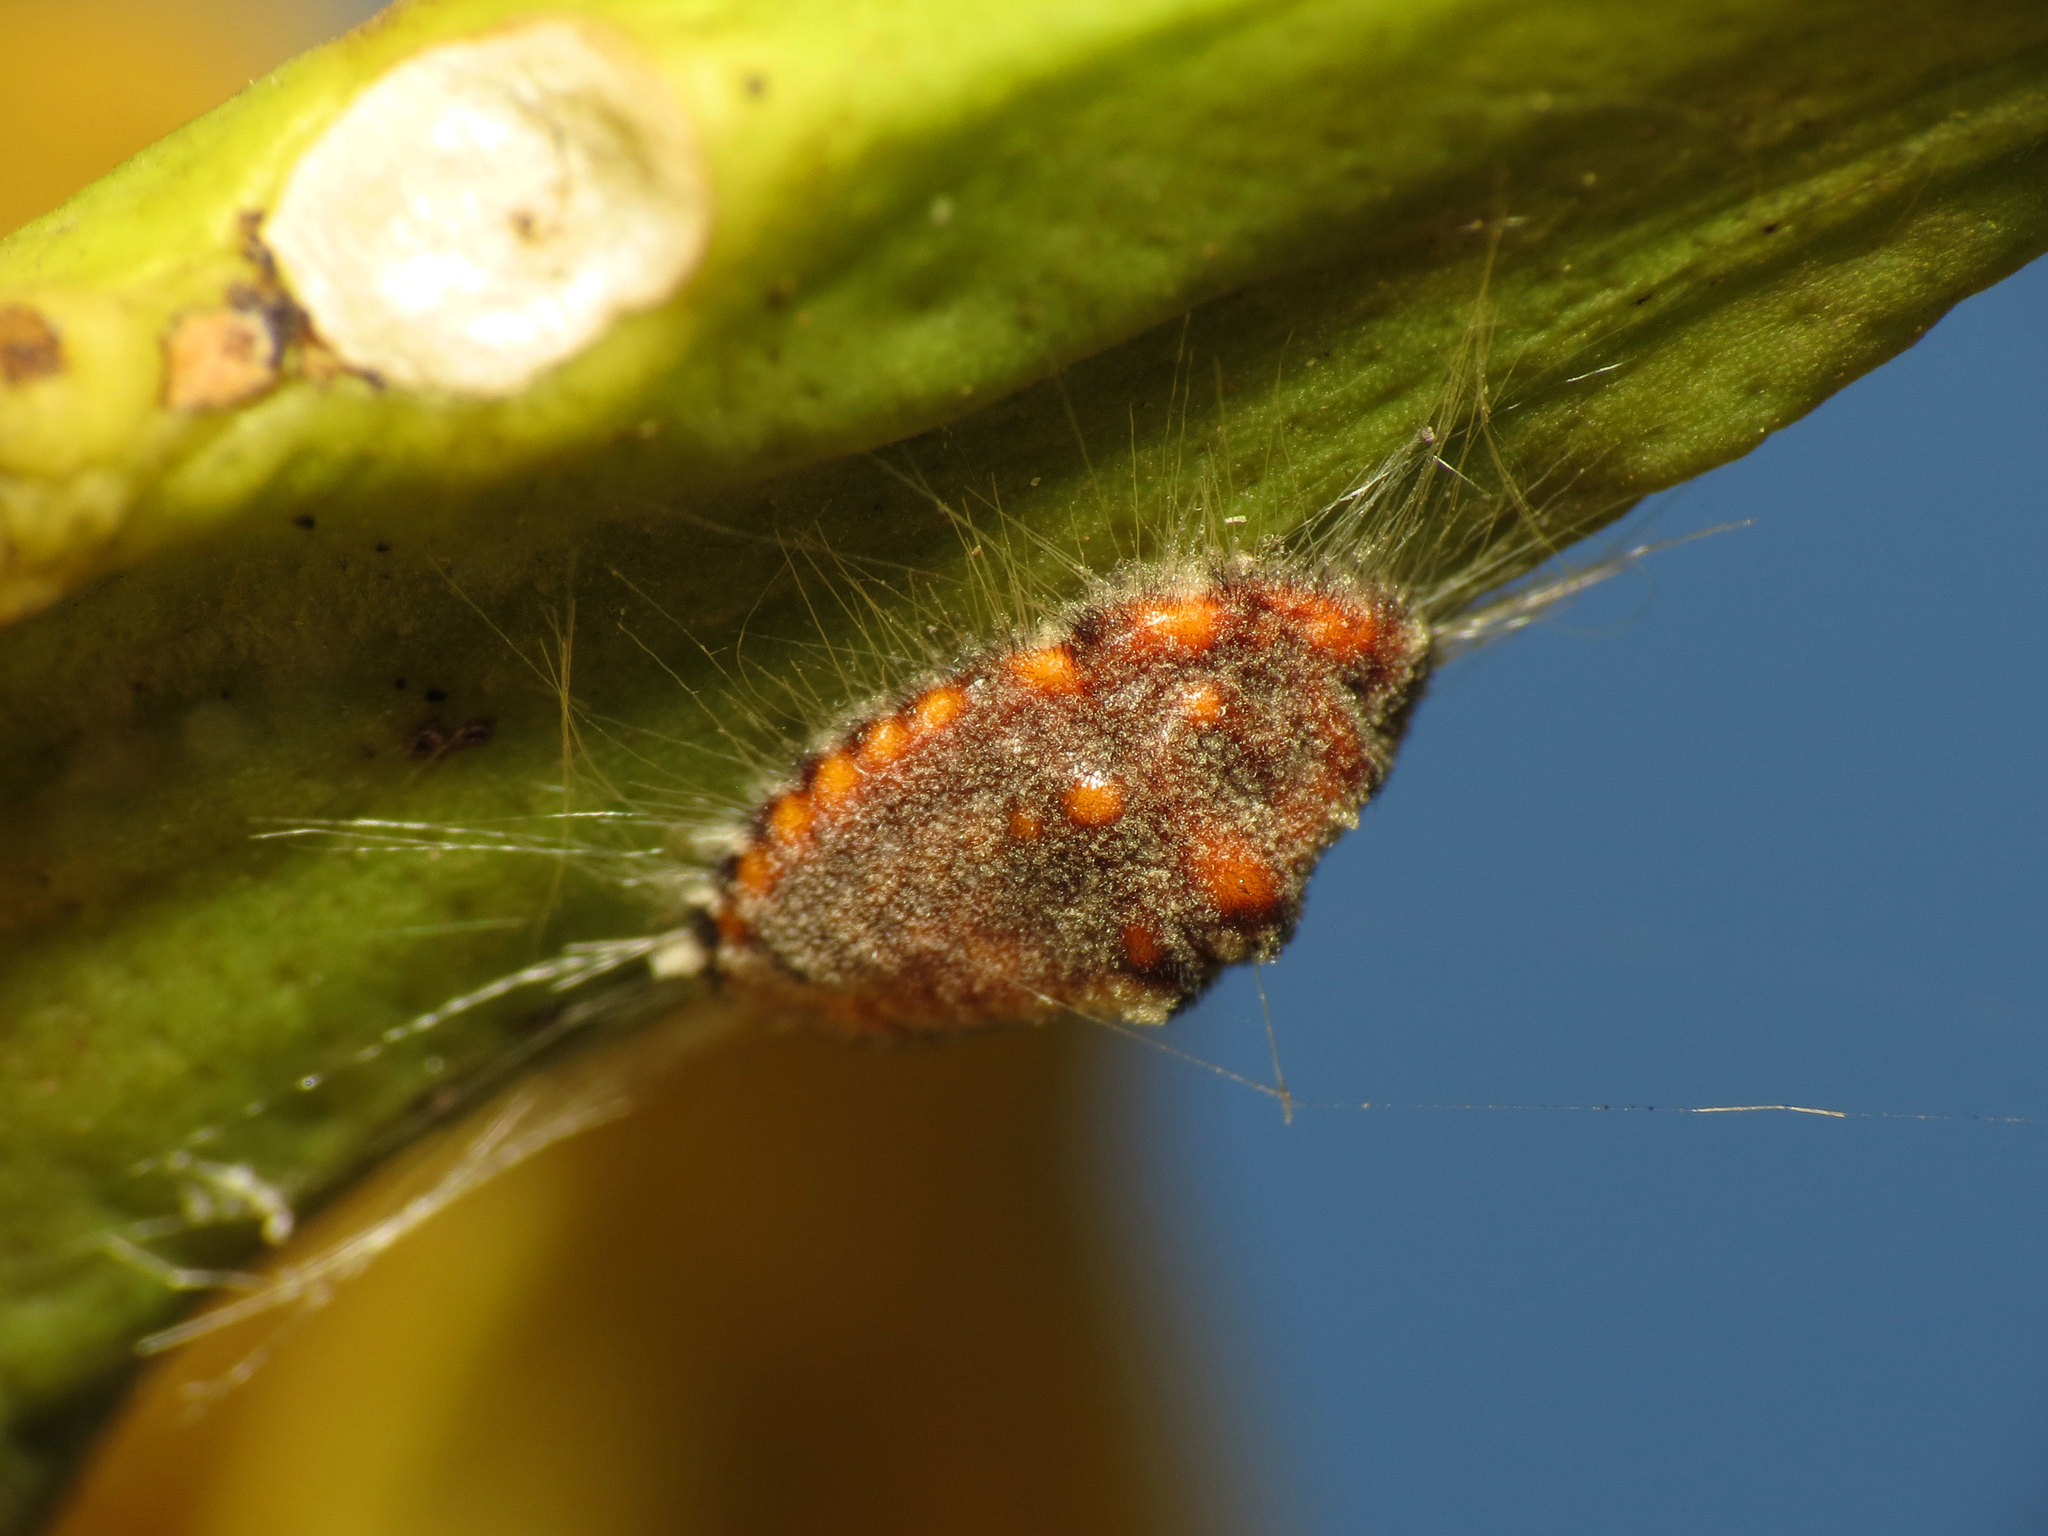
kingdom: Animalia
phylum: Arthropoda
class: Insecta
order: Hemiptera
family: Margarodidae
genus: Icerya
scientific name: Icerya purchasi
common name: Cottony cushion scale
